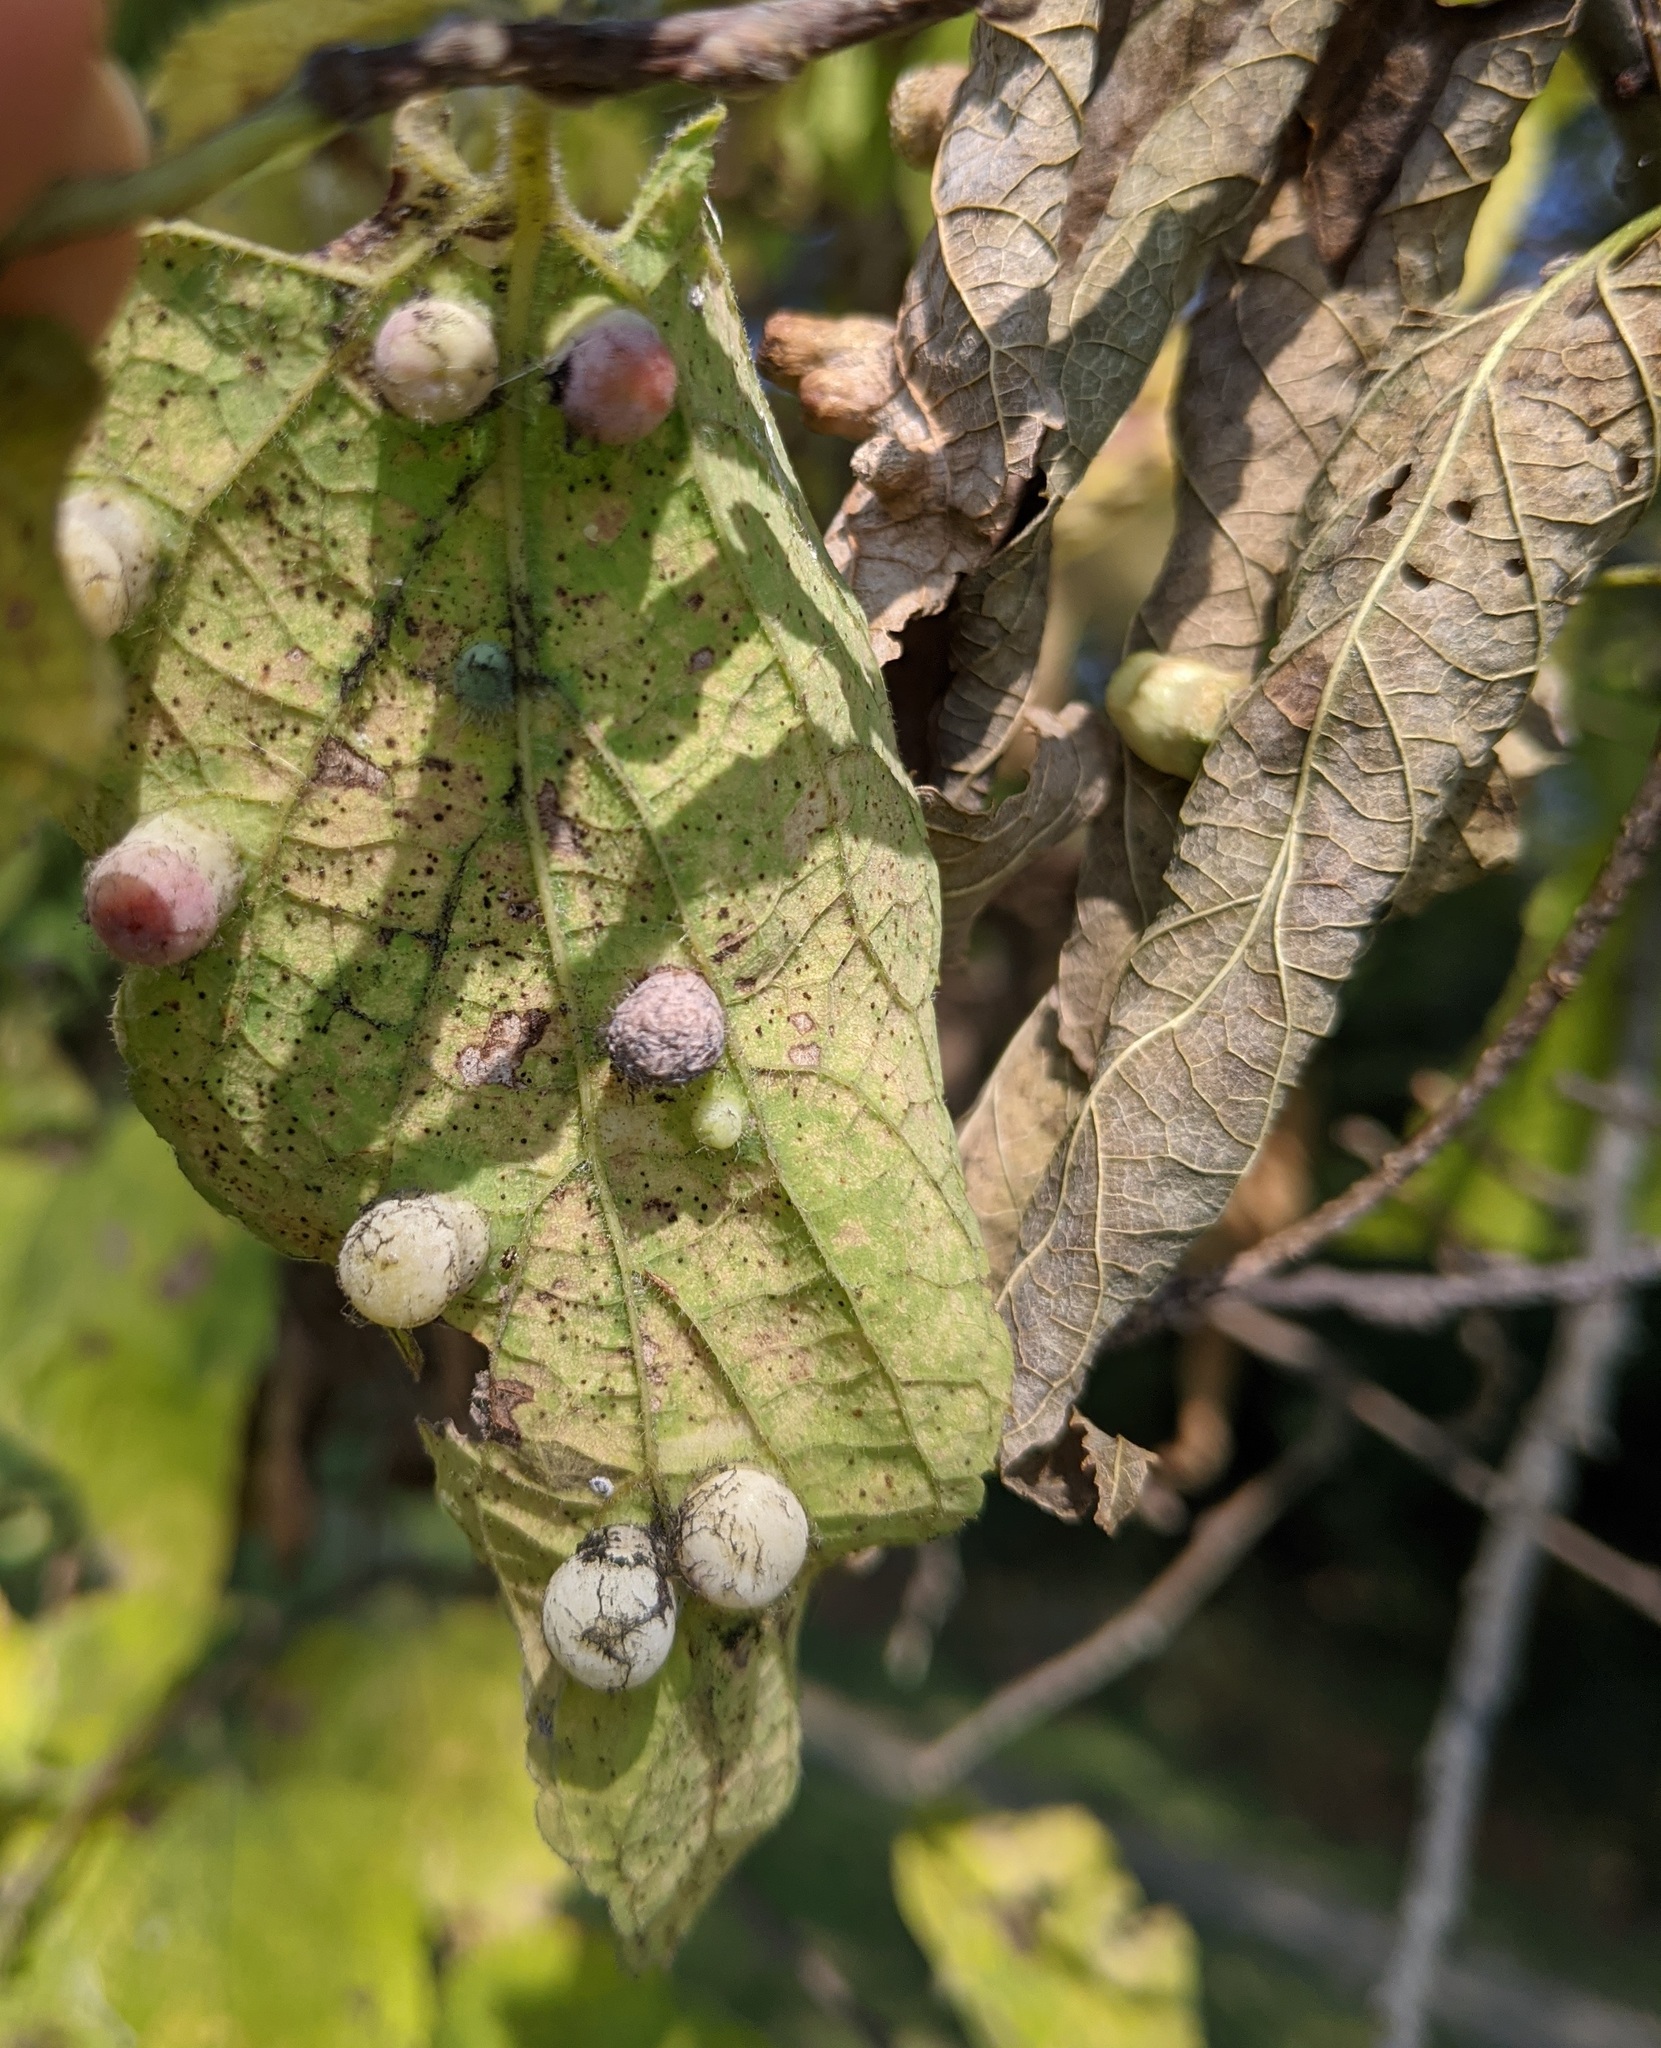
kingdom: Animalia
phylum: Arthropoda
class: Insecta
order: Hemiptera
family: Aphalaridae
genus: Pachypsylla
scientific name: Pachypsylla celtidismamma
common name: Hackberry nipplegall psyllid
